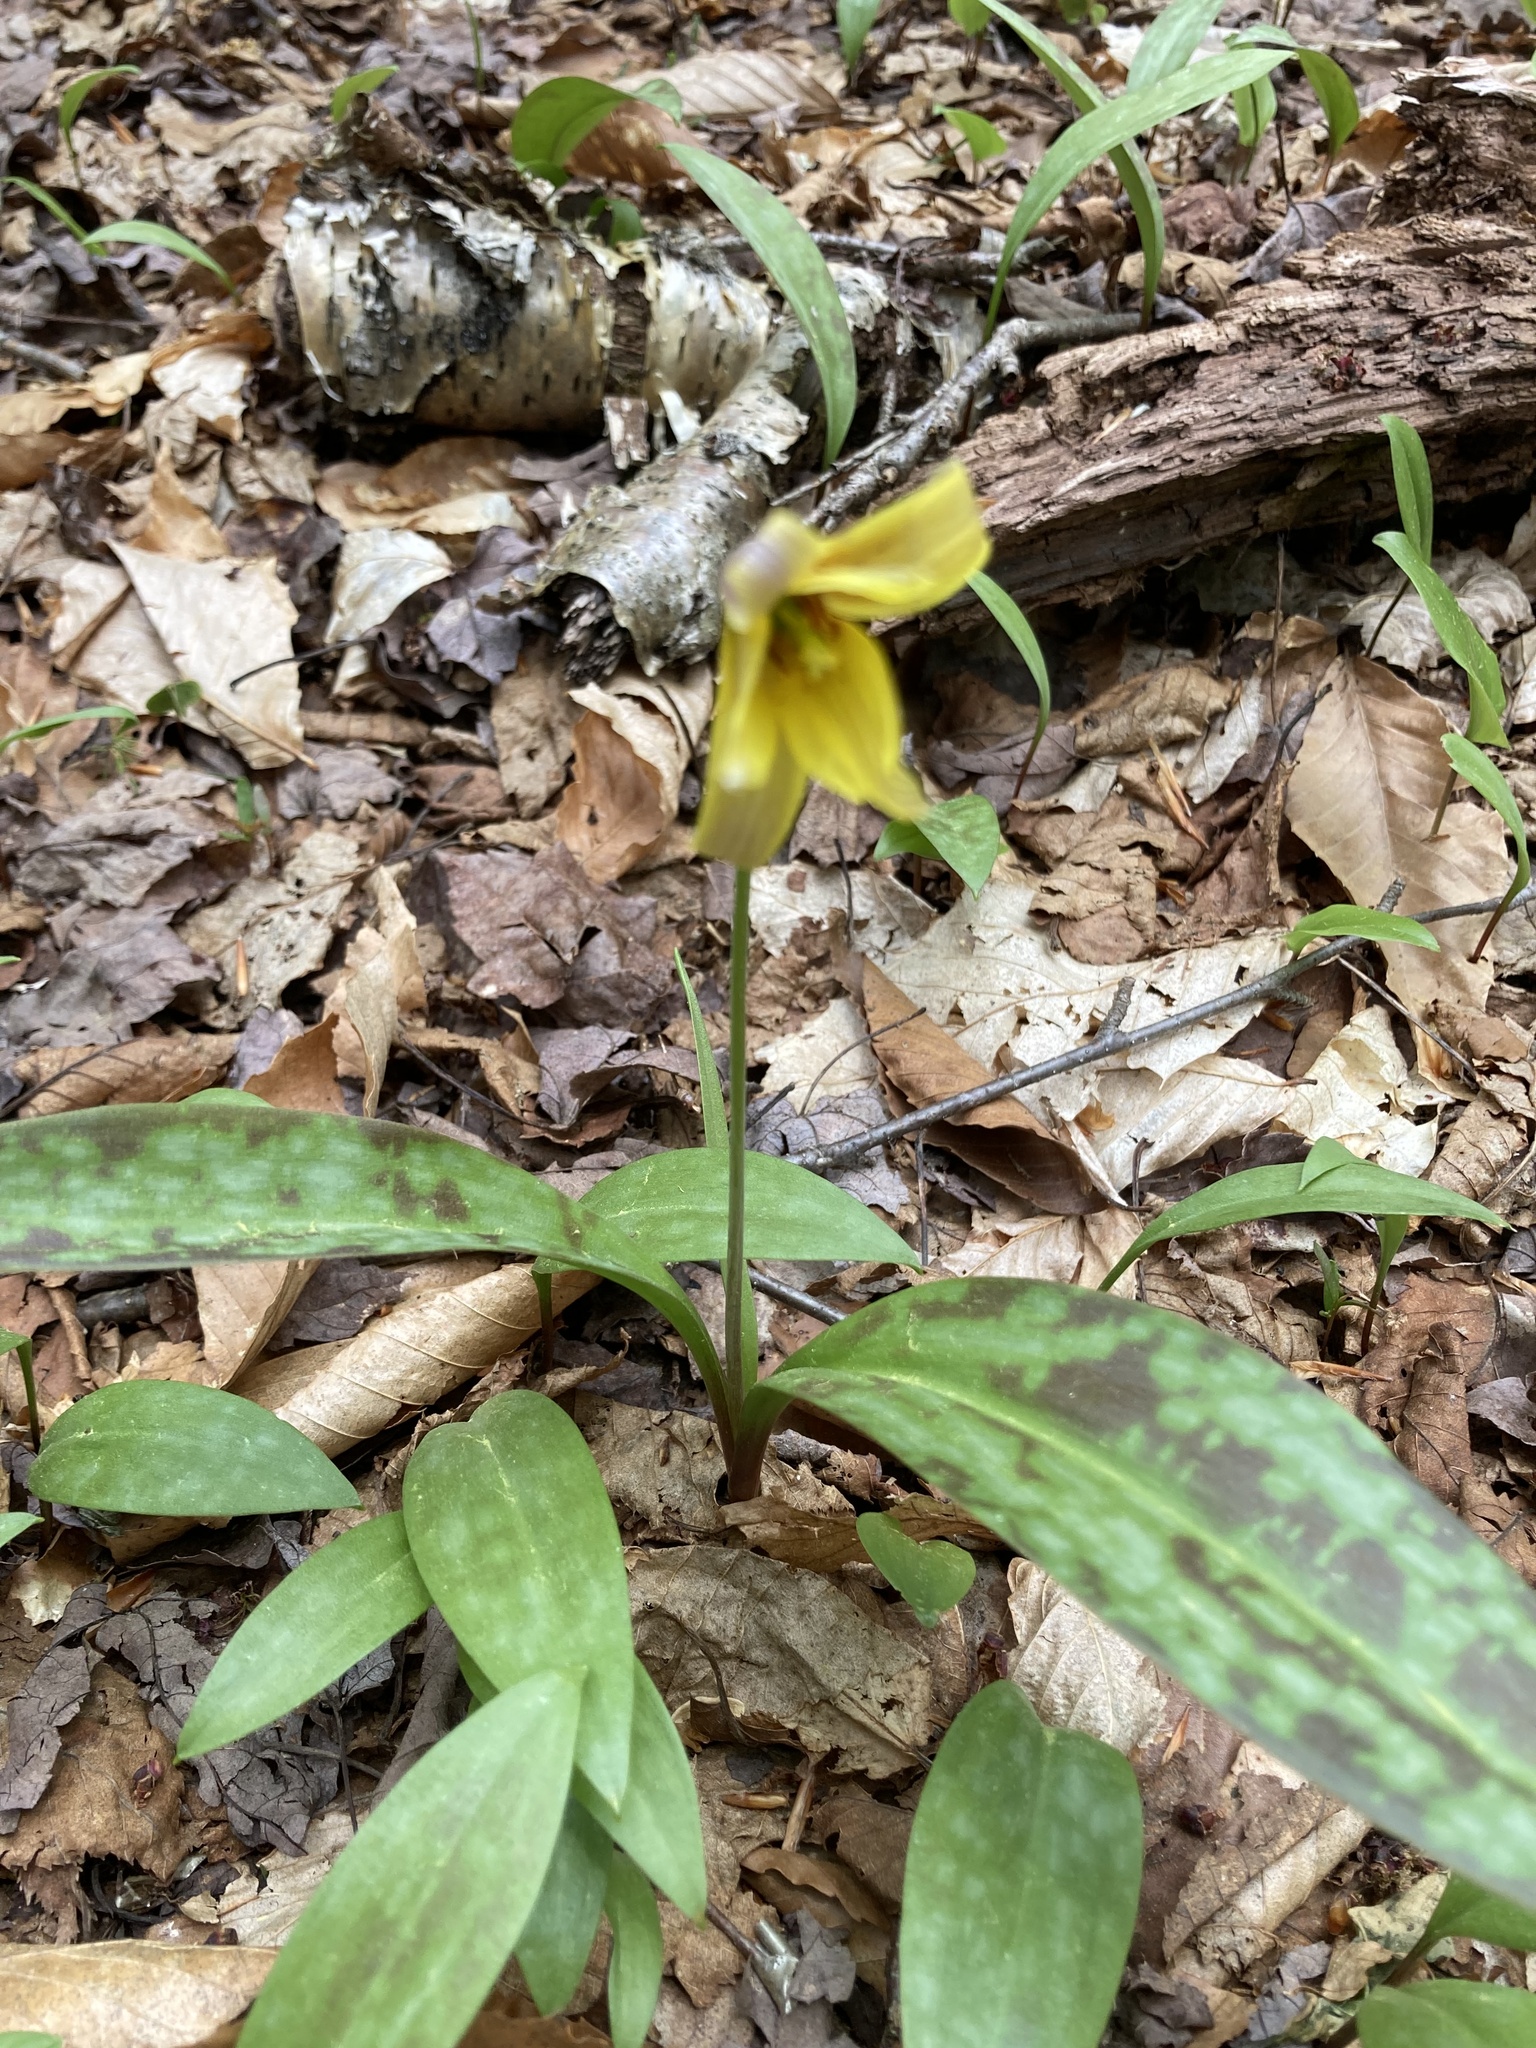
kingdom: Plantae
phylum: Tracheophyta
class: Liliopsida
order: Liliales
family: Liliaceae
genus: Erythronium
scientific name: Erythronium americanum
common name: Yellow adder's-tongue
